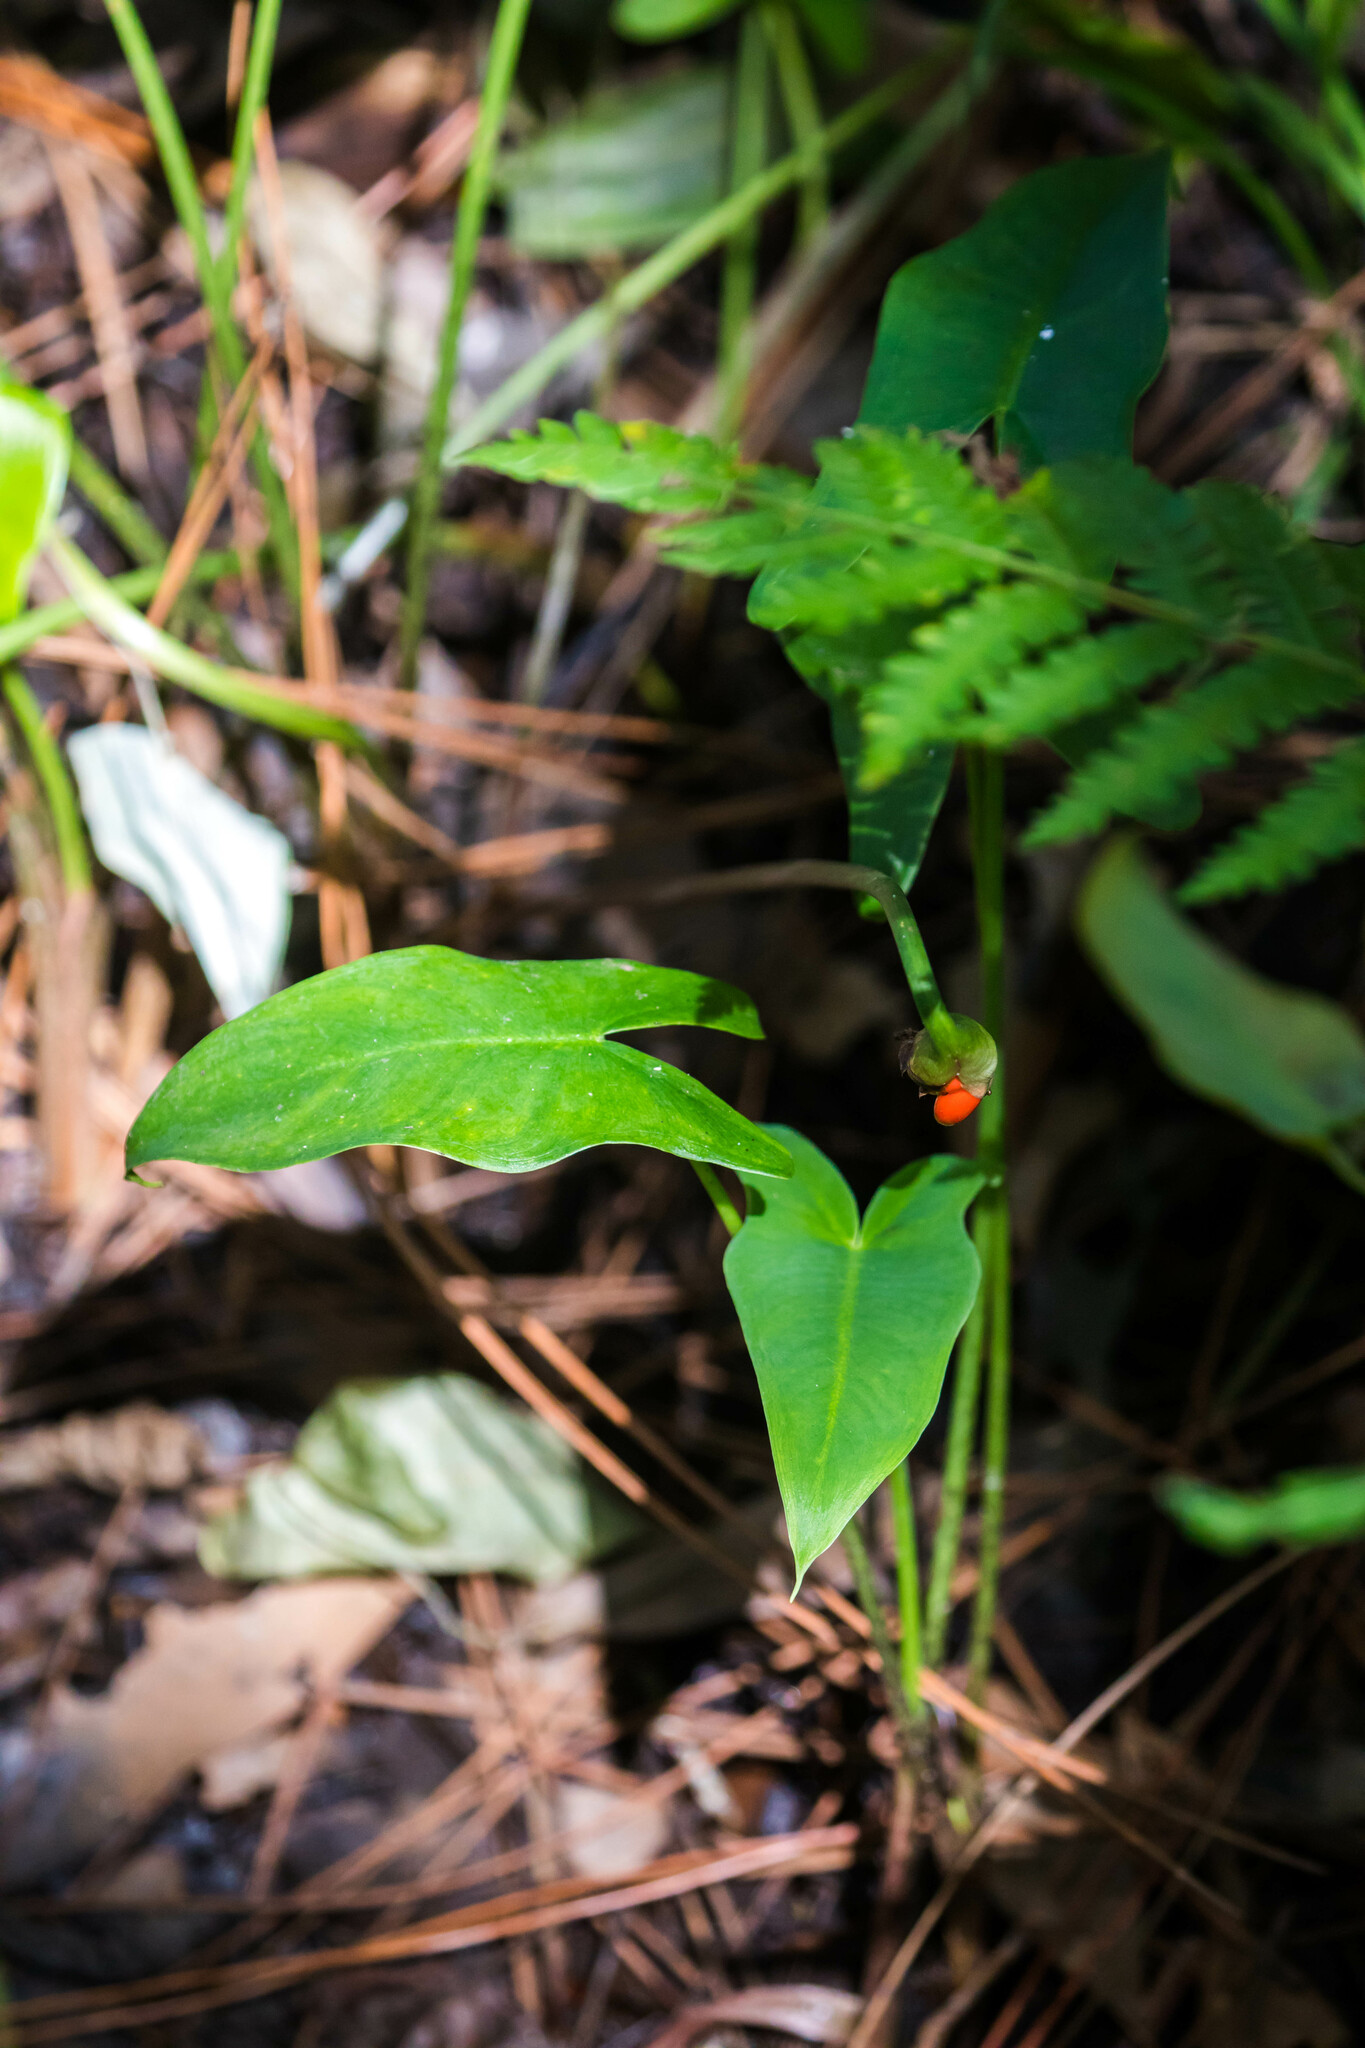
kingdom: Plantae
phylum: Tracheophyta
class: Liliopsida
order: Alismatales
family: Araceae
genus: Peltandra
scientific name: Peltandra sagittifolia
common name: White arrow arum
